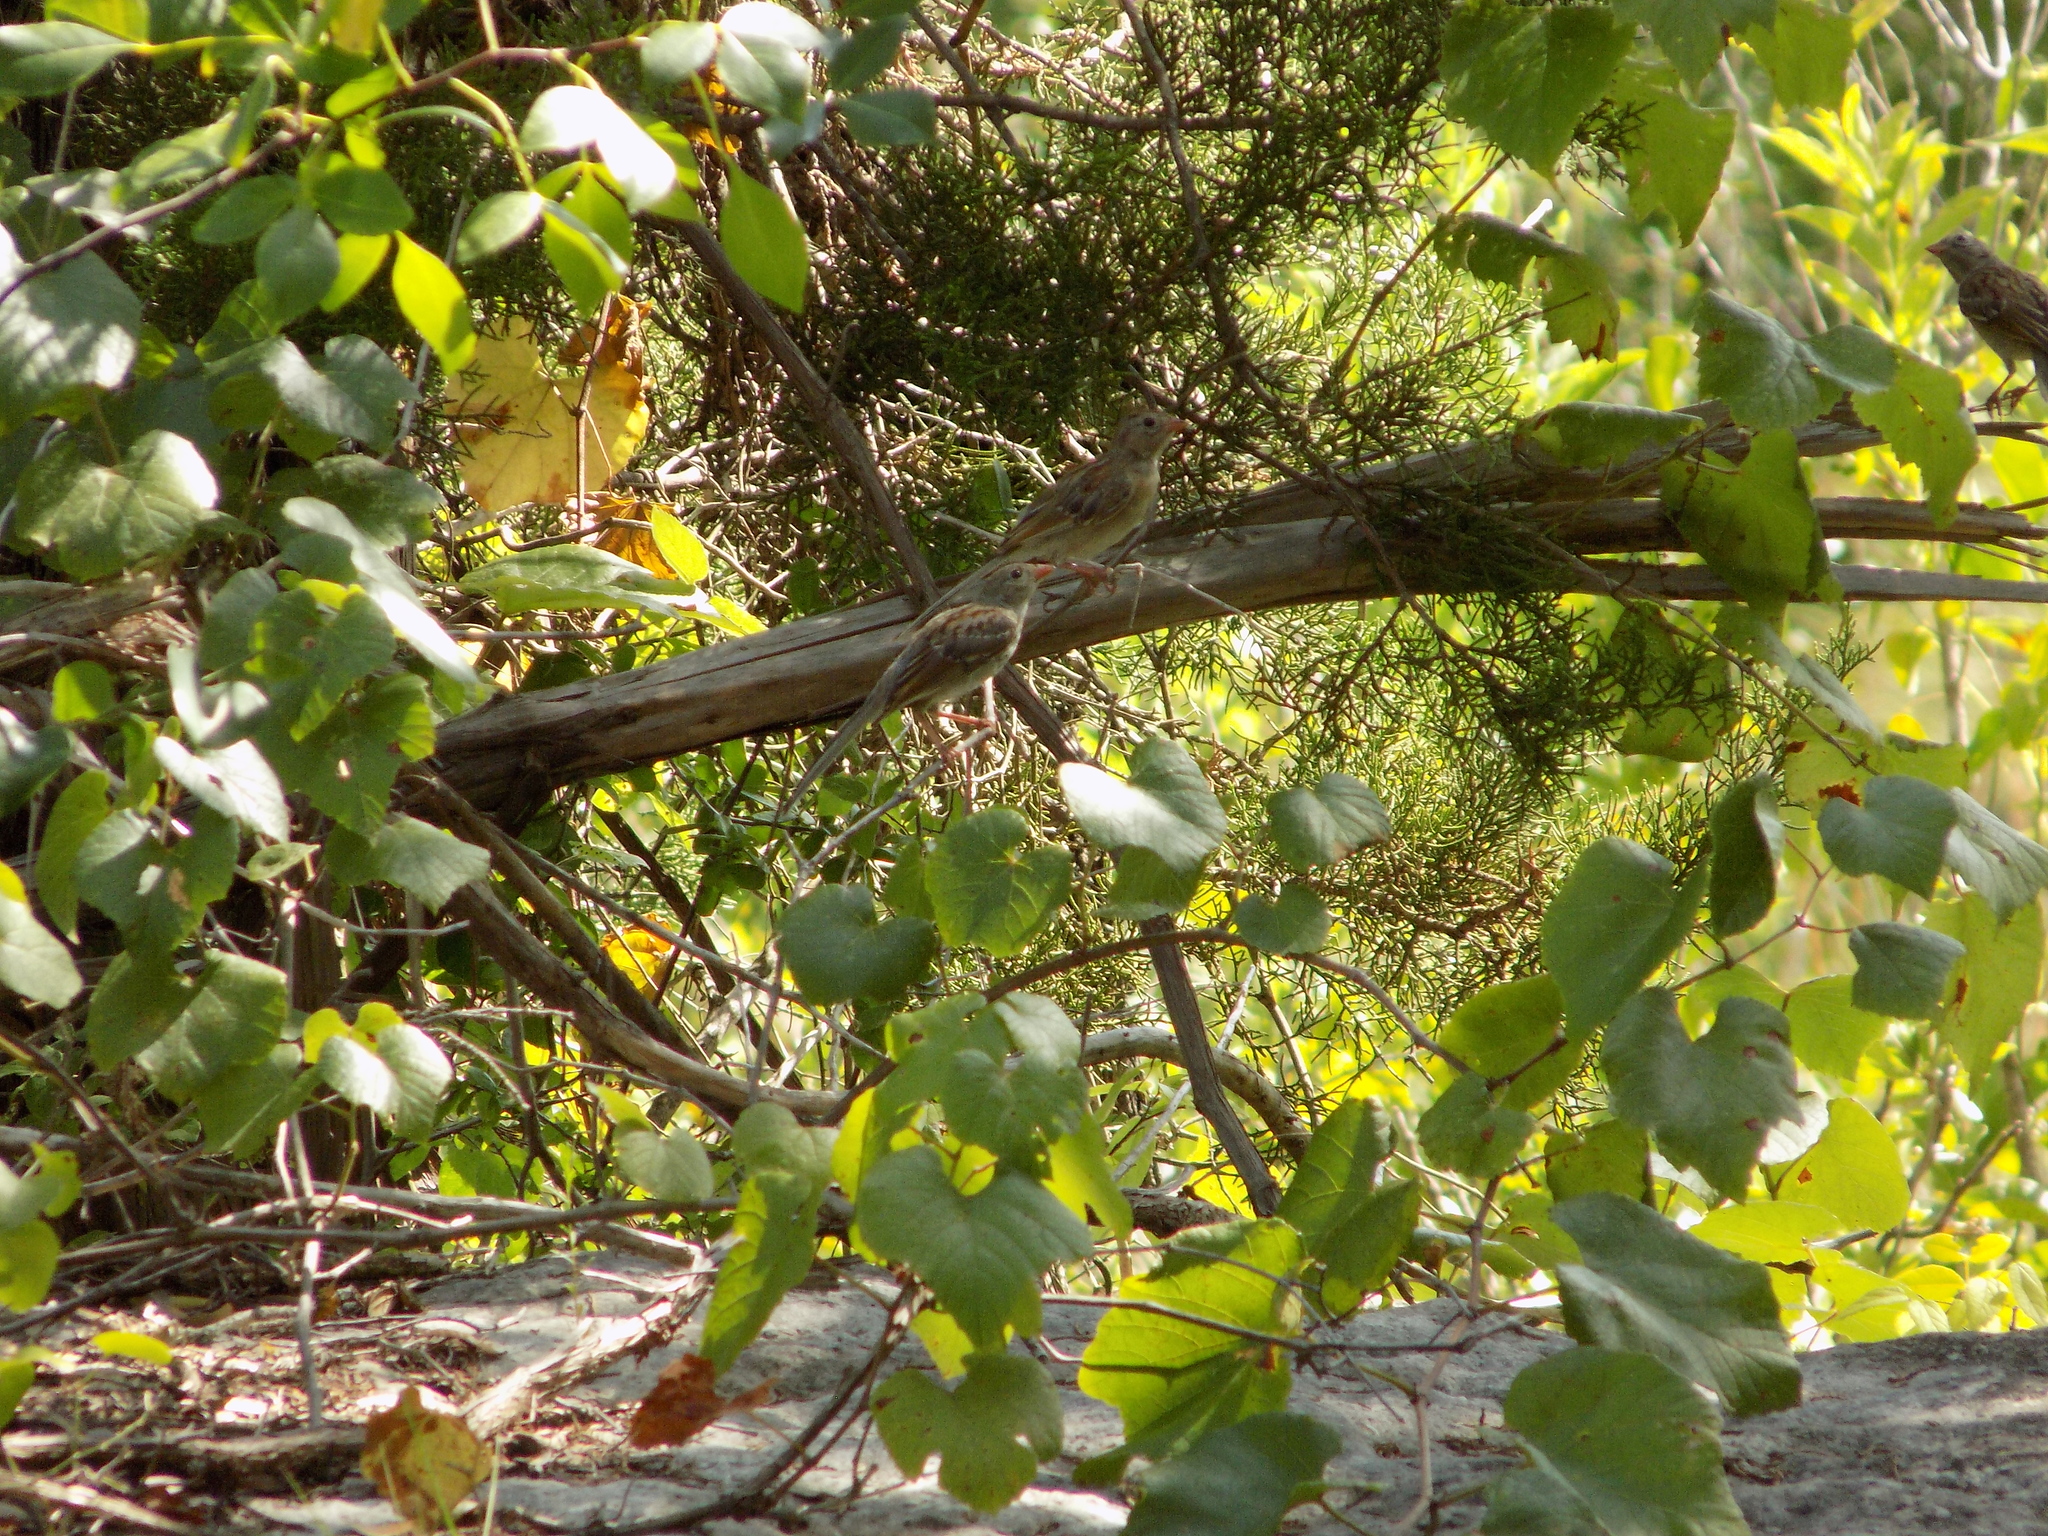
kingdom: Animalia
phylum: Chordata
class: Aves
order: Passeriformes
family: Passerellidae
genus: Spizella
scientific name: Spizella pusilla
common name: Field sparrow
